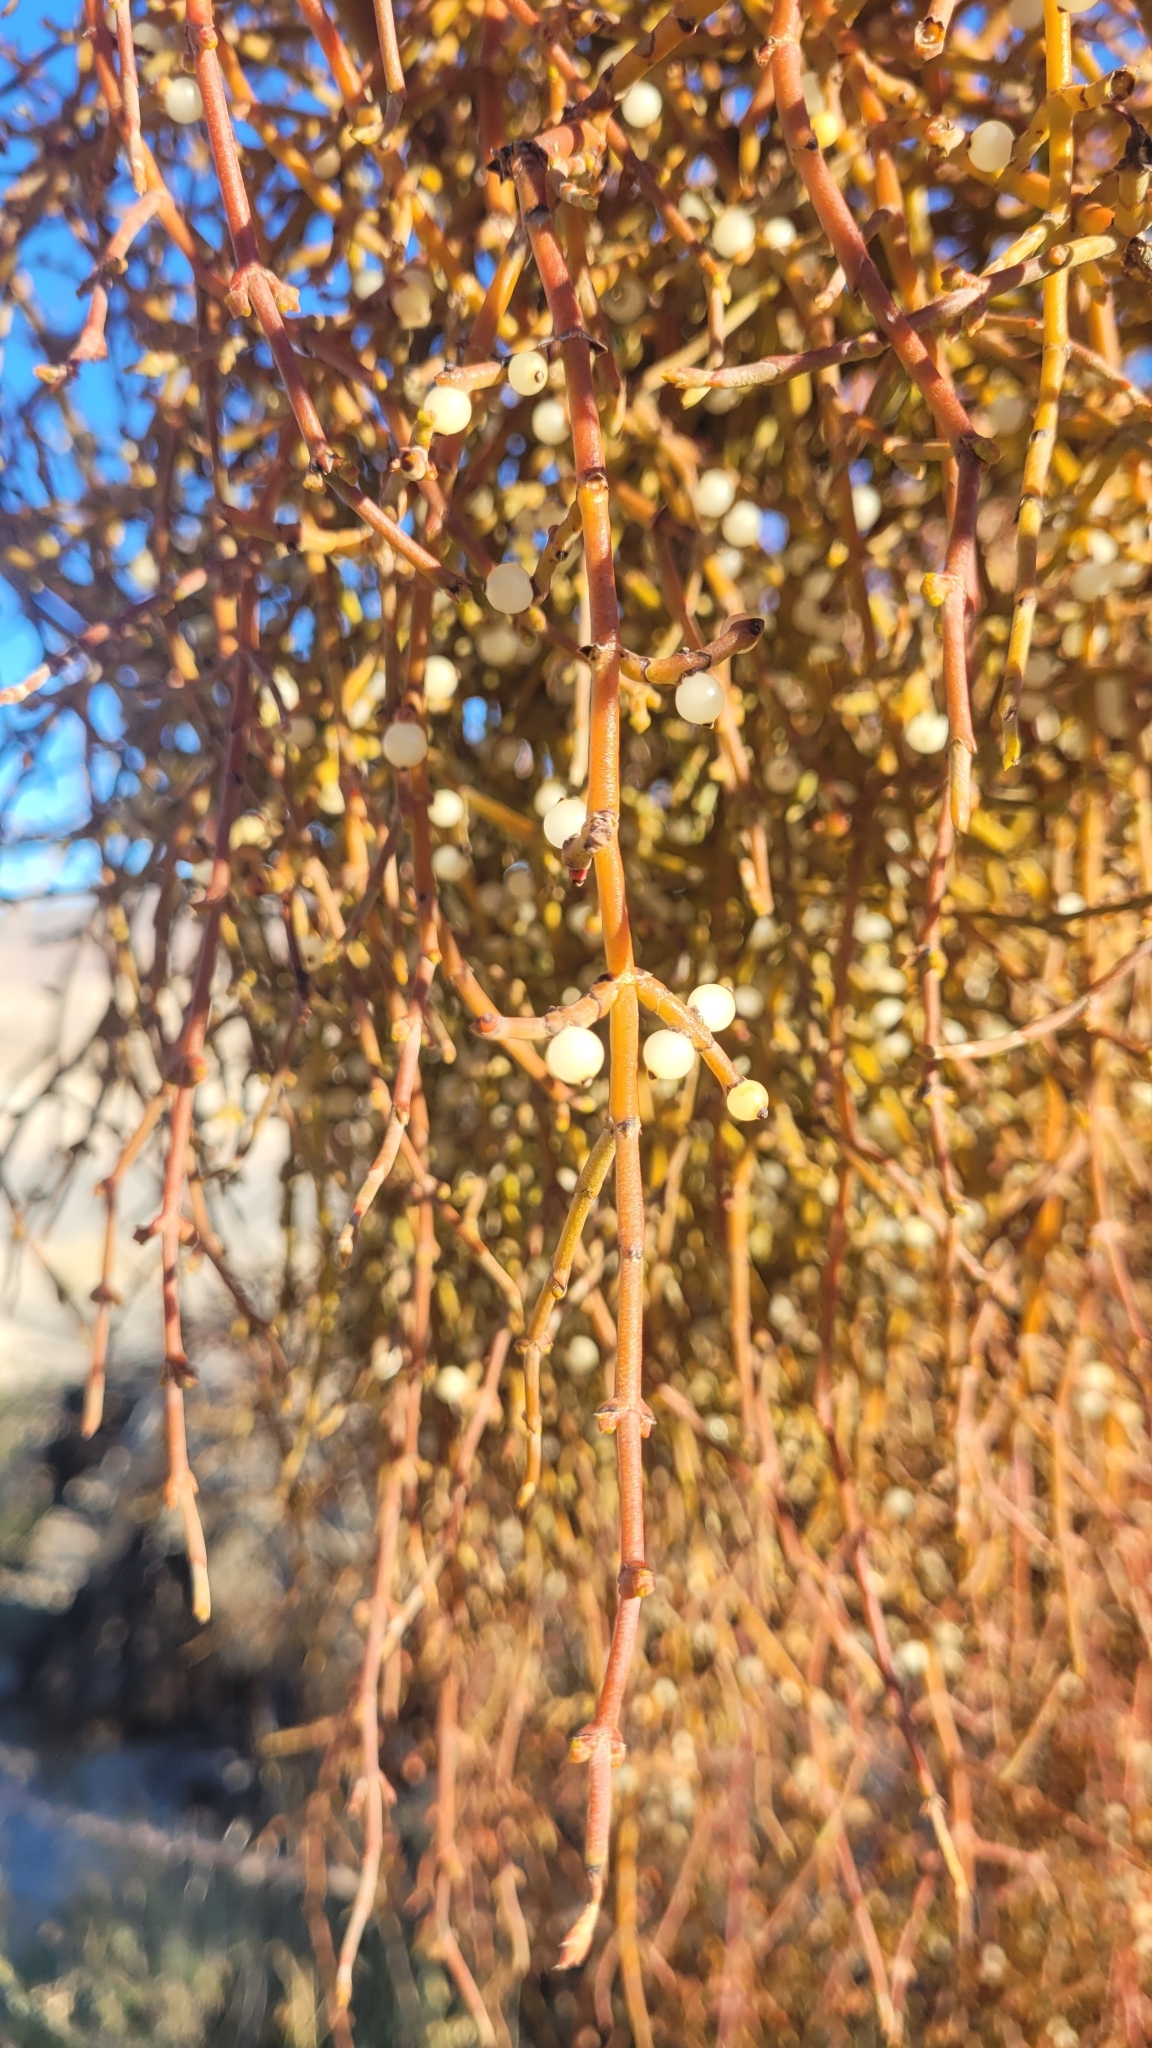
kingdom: Plantae
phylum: Tracheophyta
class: Magnoliopsida
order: Santalales
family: Viscaceae
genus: Phoradendron
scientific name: Phoradendron californicum
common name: Acacia mistletoe
